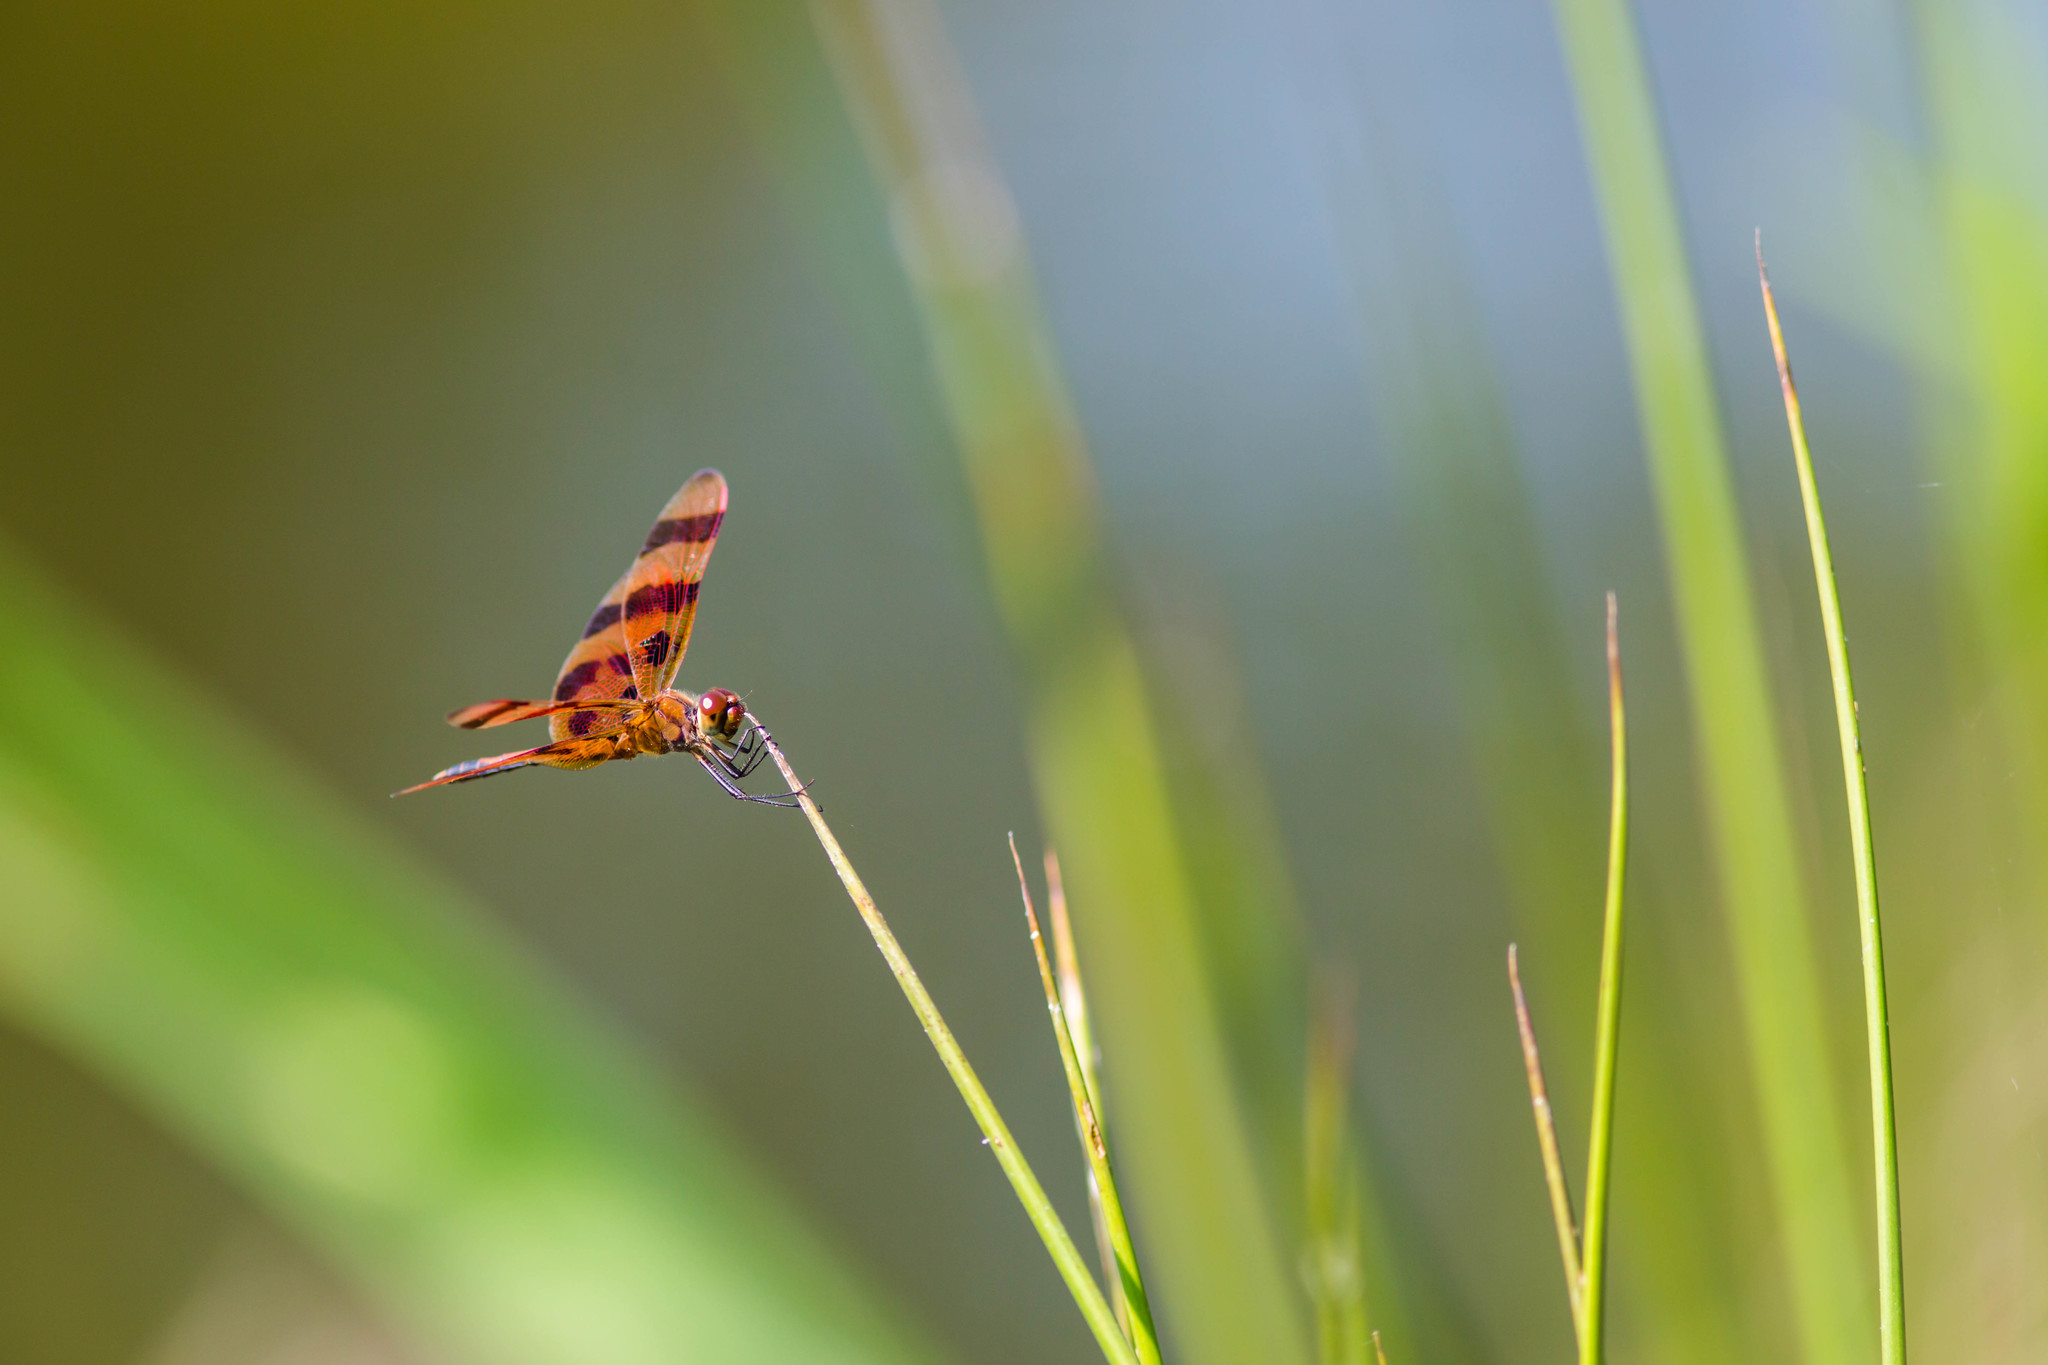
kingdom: Animalia
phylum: Arthropoda
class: Insecta
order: Odonata
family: Libellulidae
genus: Celithemis
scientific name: Celithemis eponina
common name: Halloween pennant
